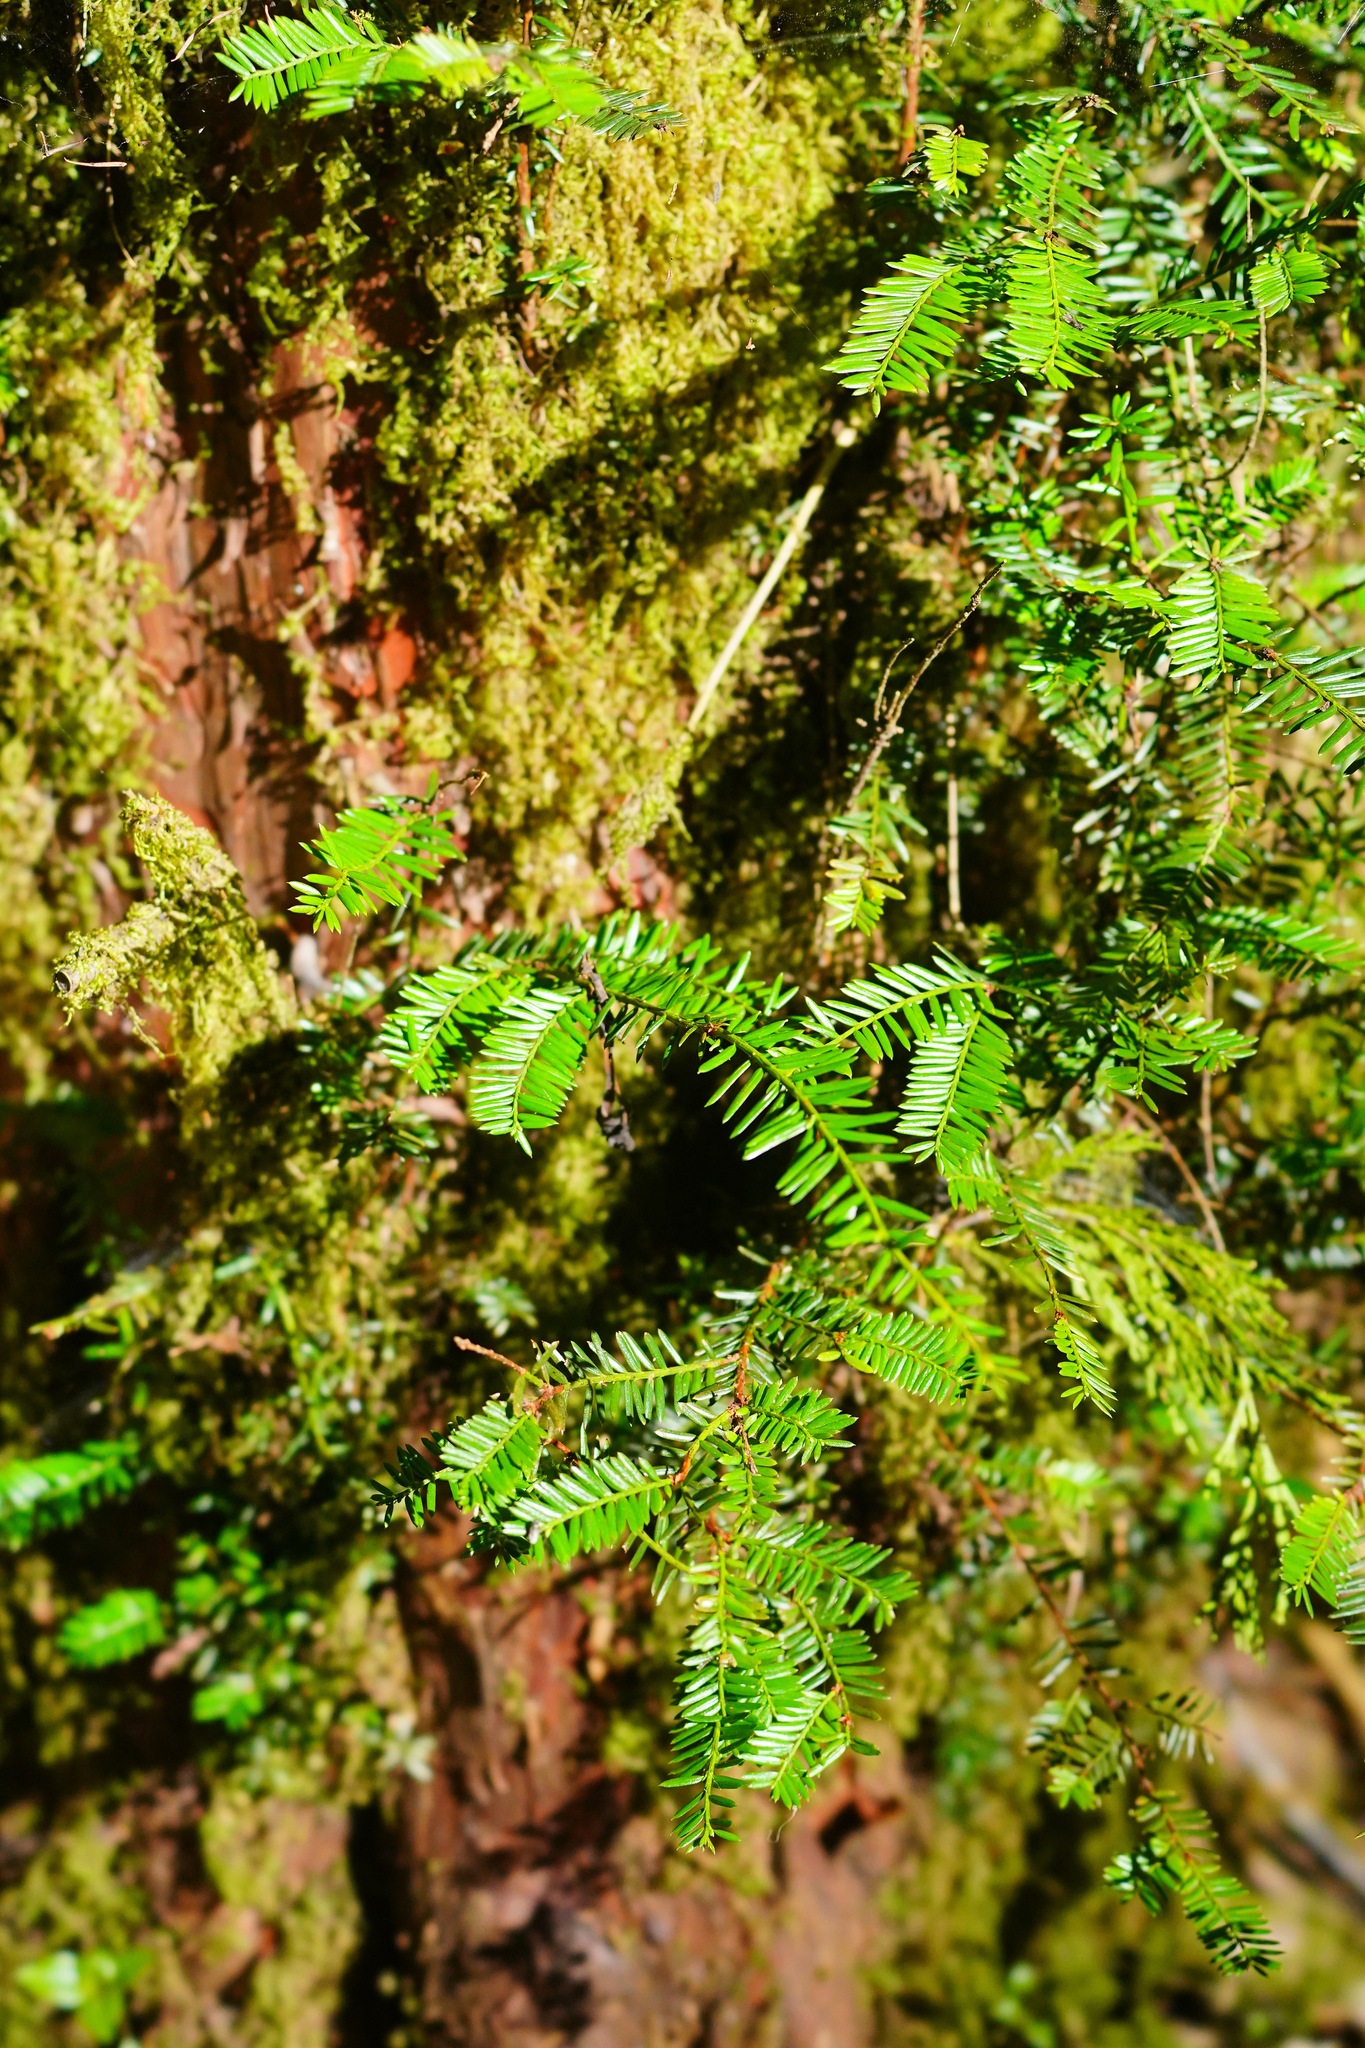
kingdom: Plantae
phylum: Tracheophyta
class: Pinopsida
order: Pinales
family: Taxaceae
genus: Taxus
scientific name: Taxus brevifolia
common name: Pacific yew
